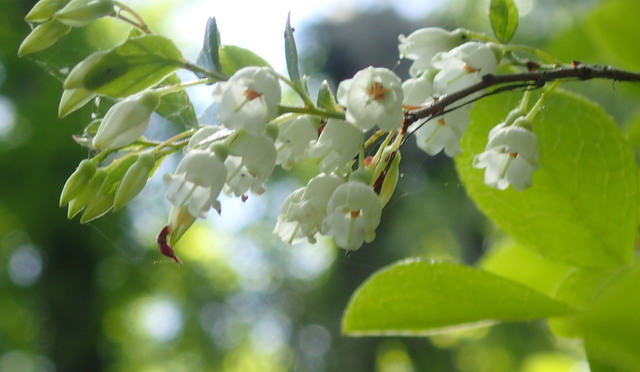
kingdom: Plantae
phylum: Tracheophyta
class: Magnoliopsida
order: Ericales
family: Ericaceae
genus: Vaccinium
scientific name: Vaccinium arboreum
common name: Farkleberry
